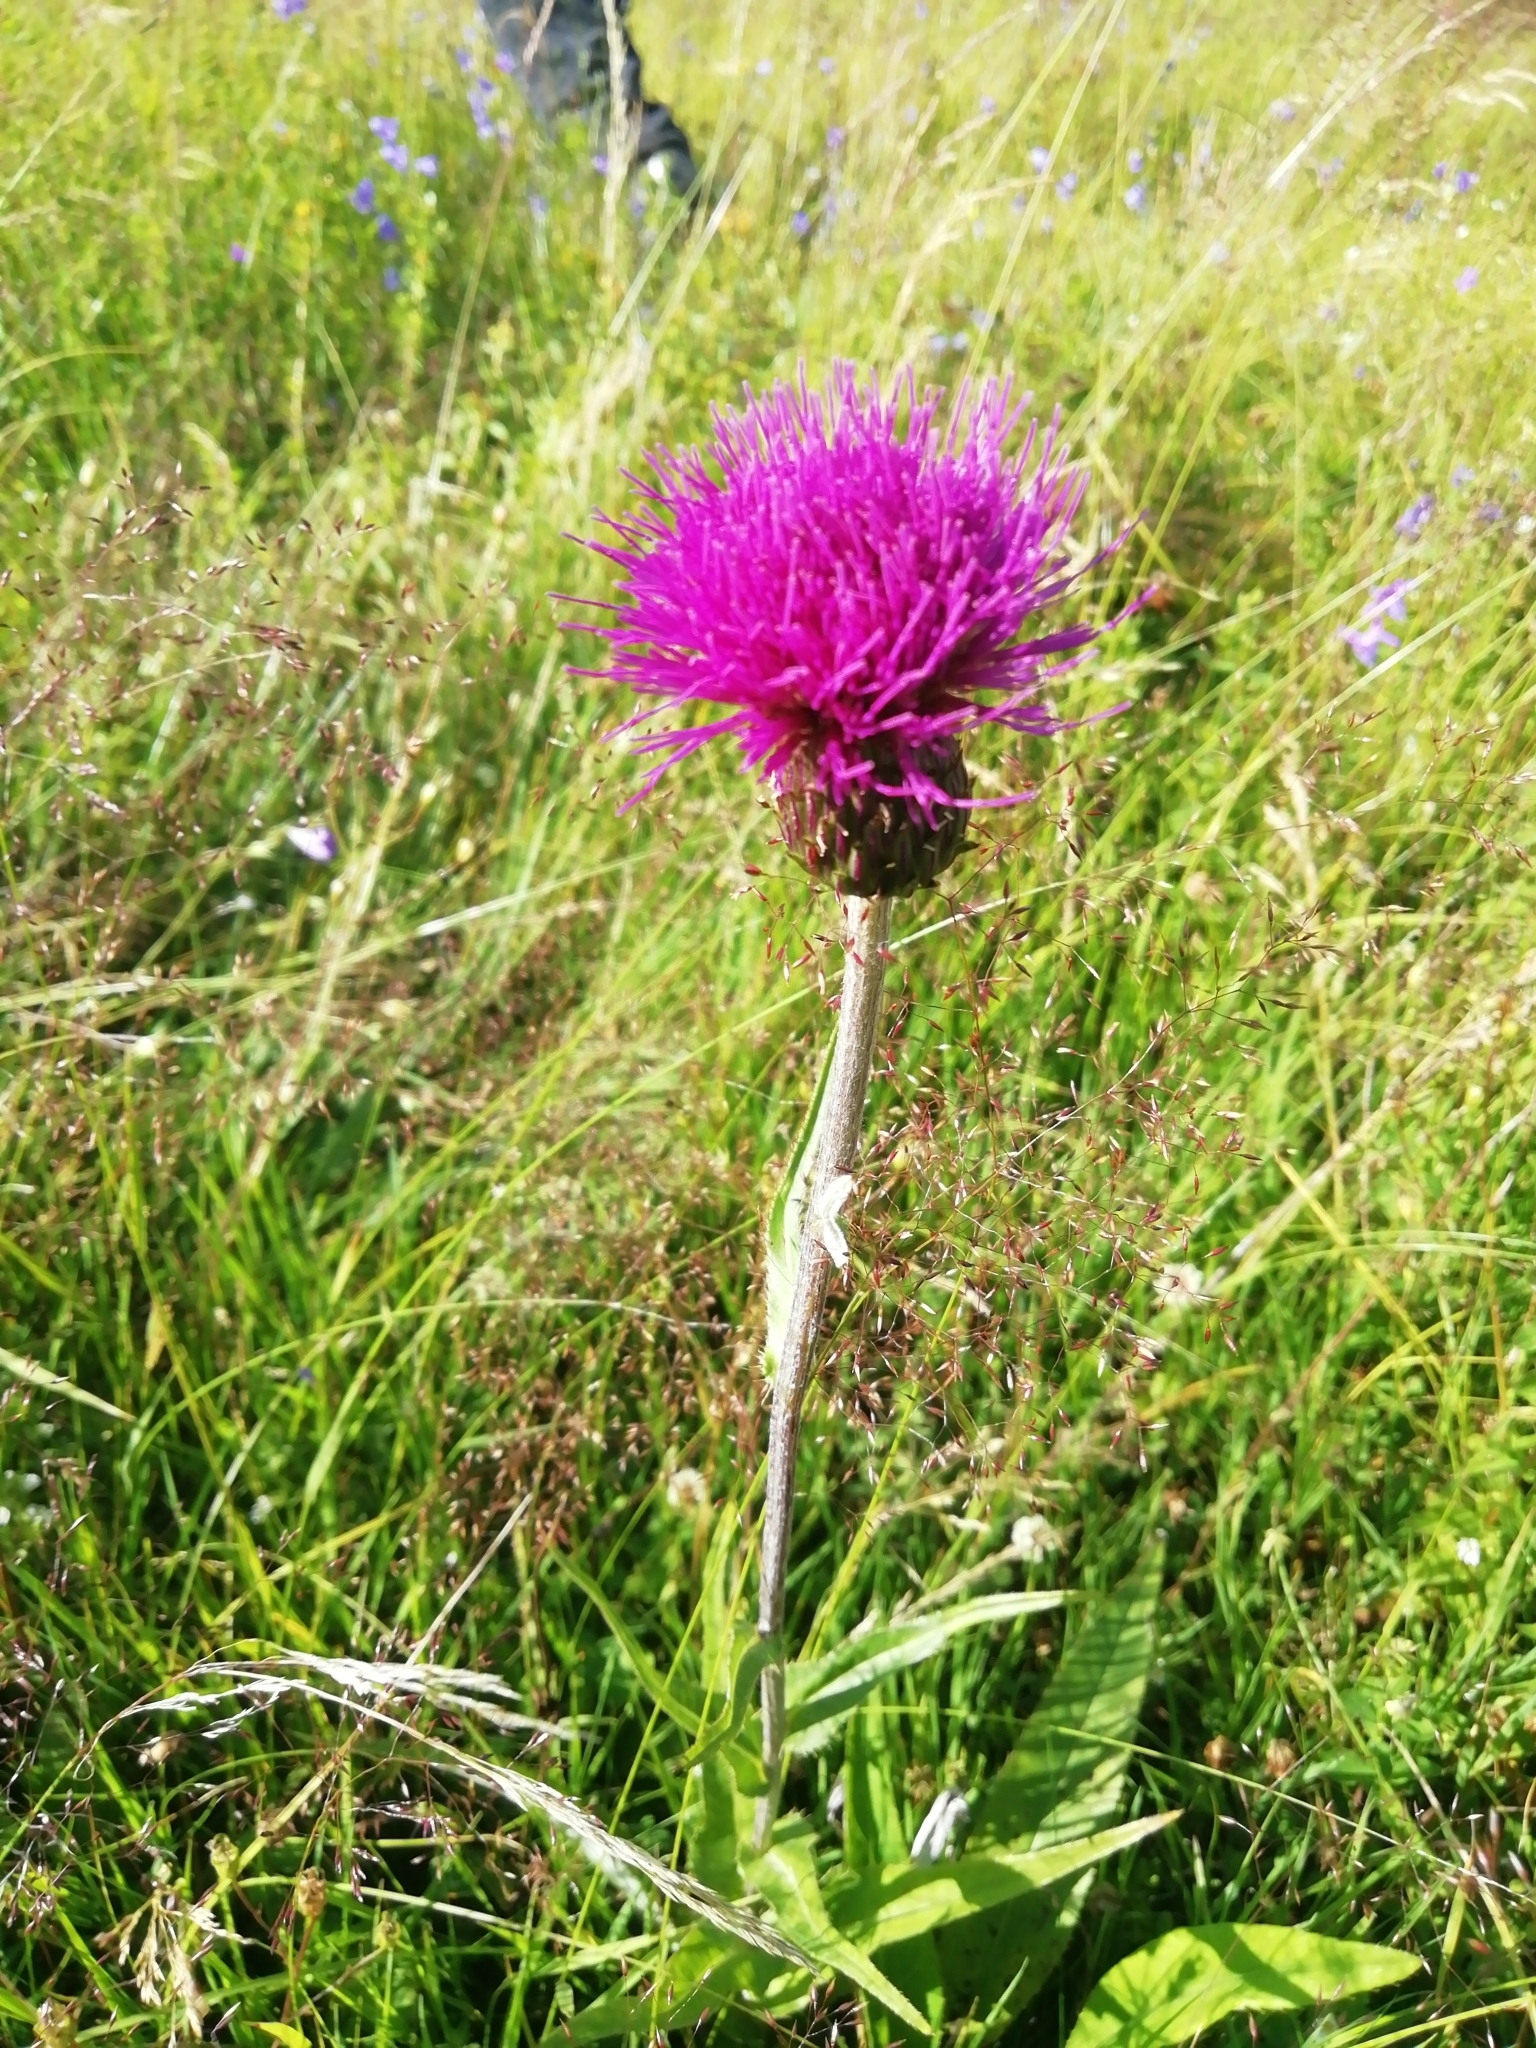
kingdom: Plantae
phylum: Tracheophyta
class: Magnoliopsida
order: Asterales
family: Asteraceae
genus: Cirsium
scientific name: Cirsium heterophyllum
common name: Melancholy thistle
